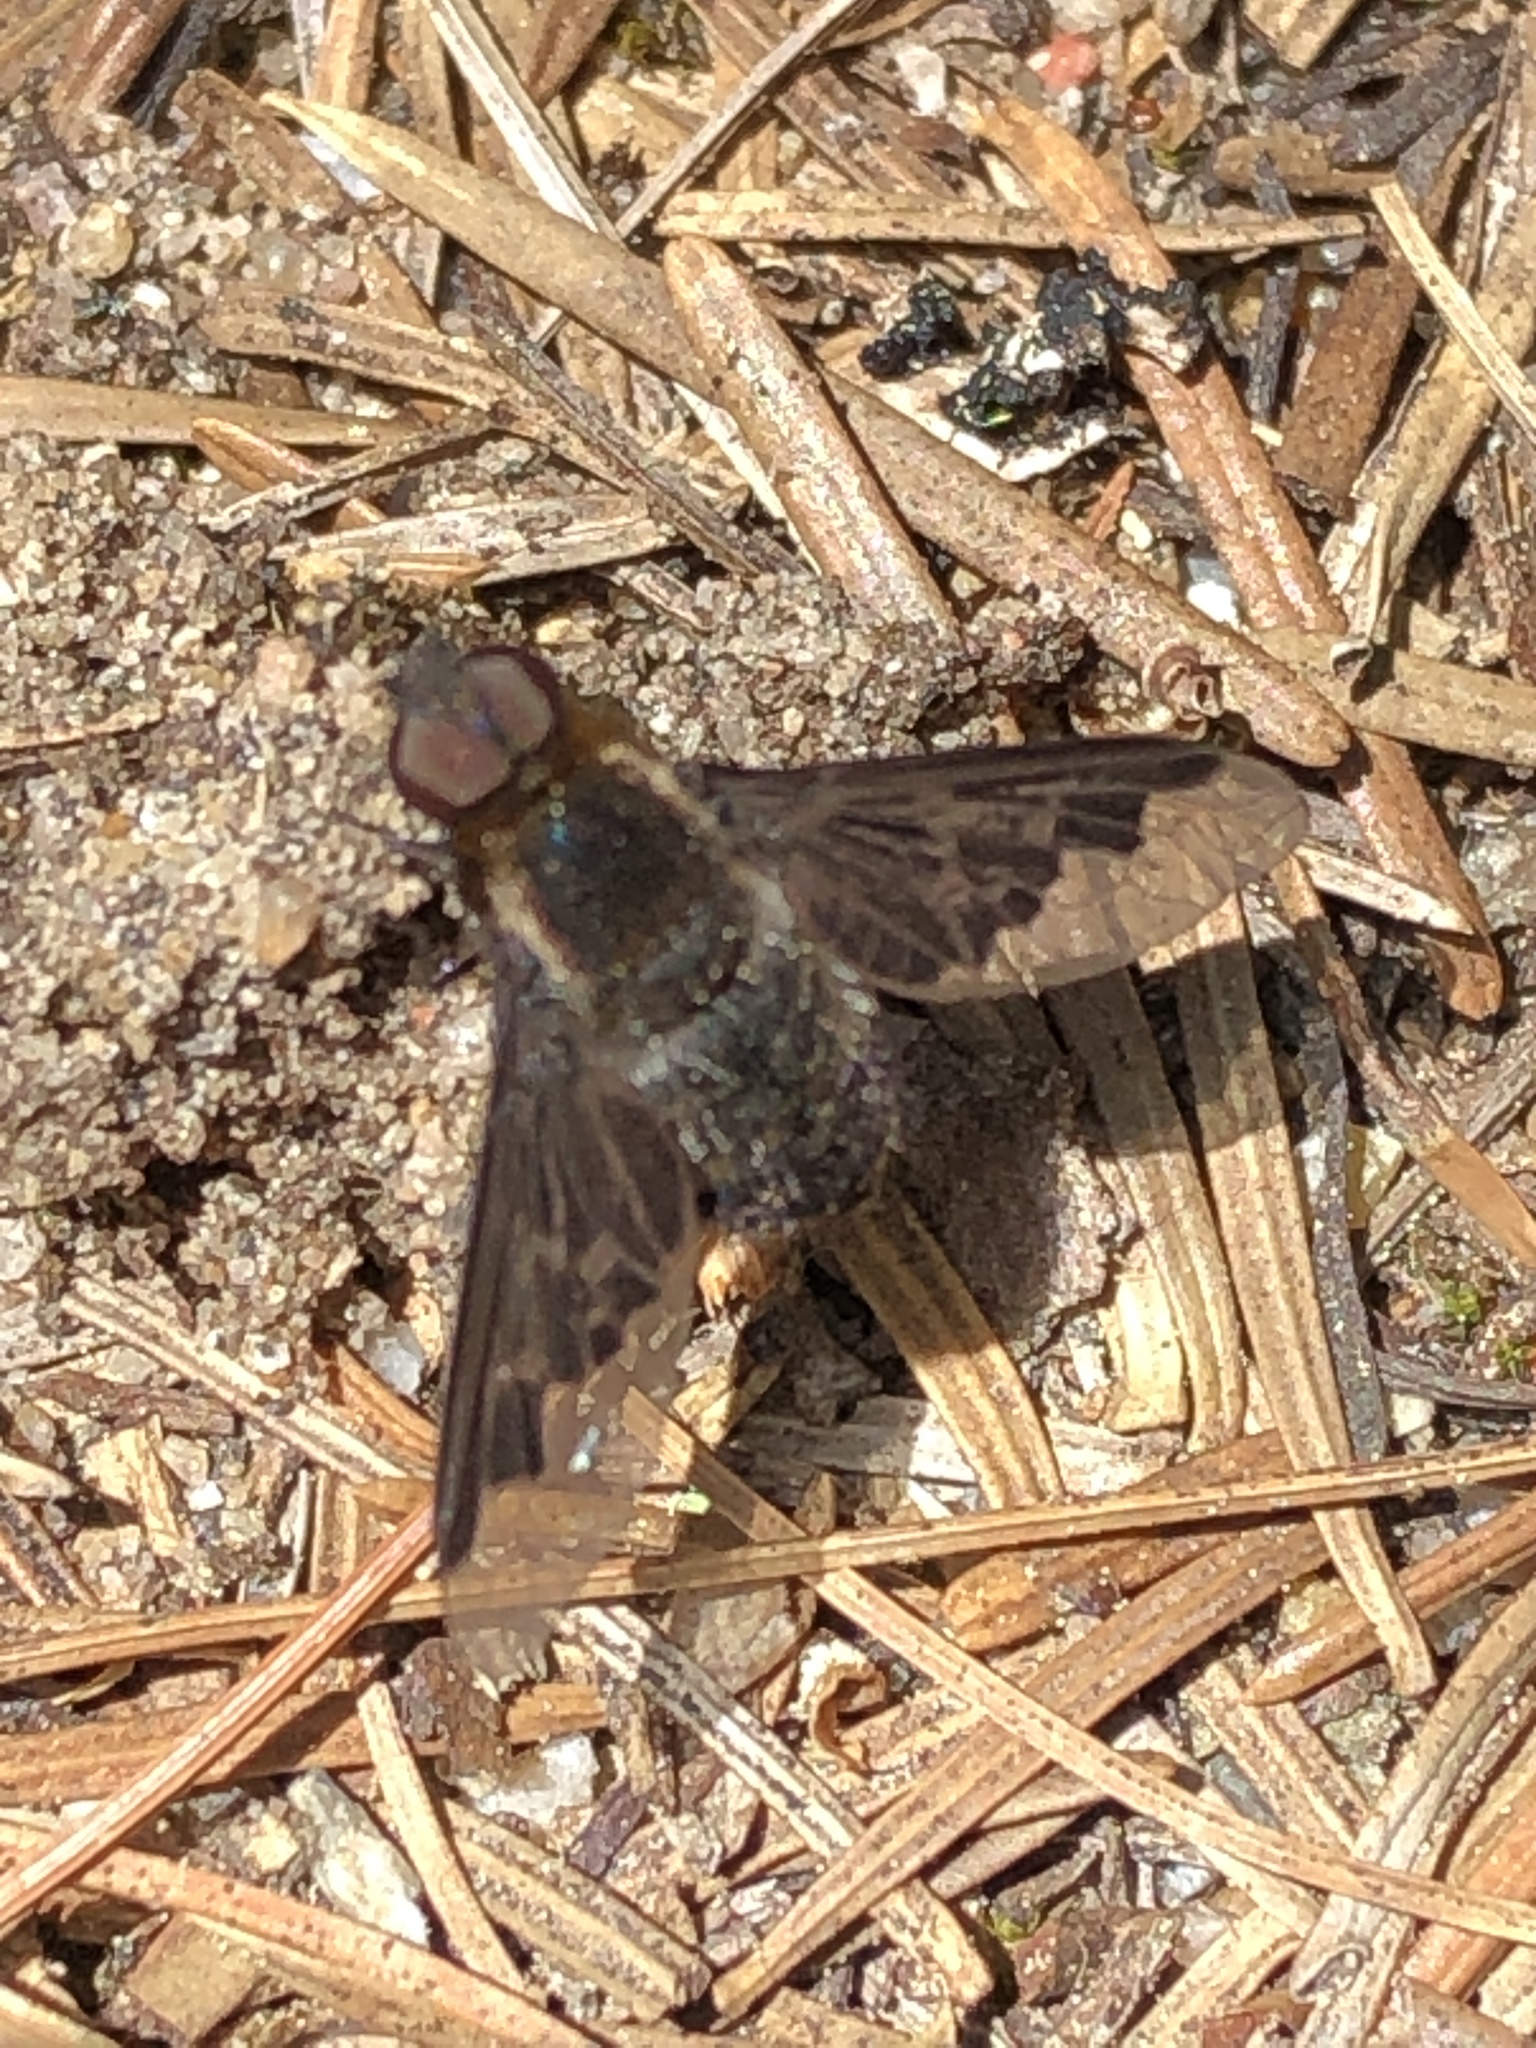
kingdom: Animalia
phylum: Arthropoda
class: Insecta
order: Diptera
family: Bombyliidae
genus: Hemipenthes
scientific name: Hemipenthes morioides
